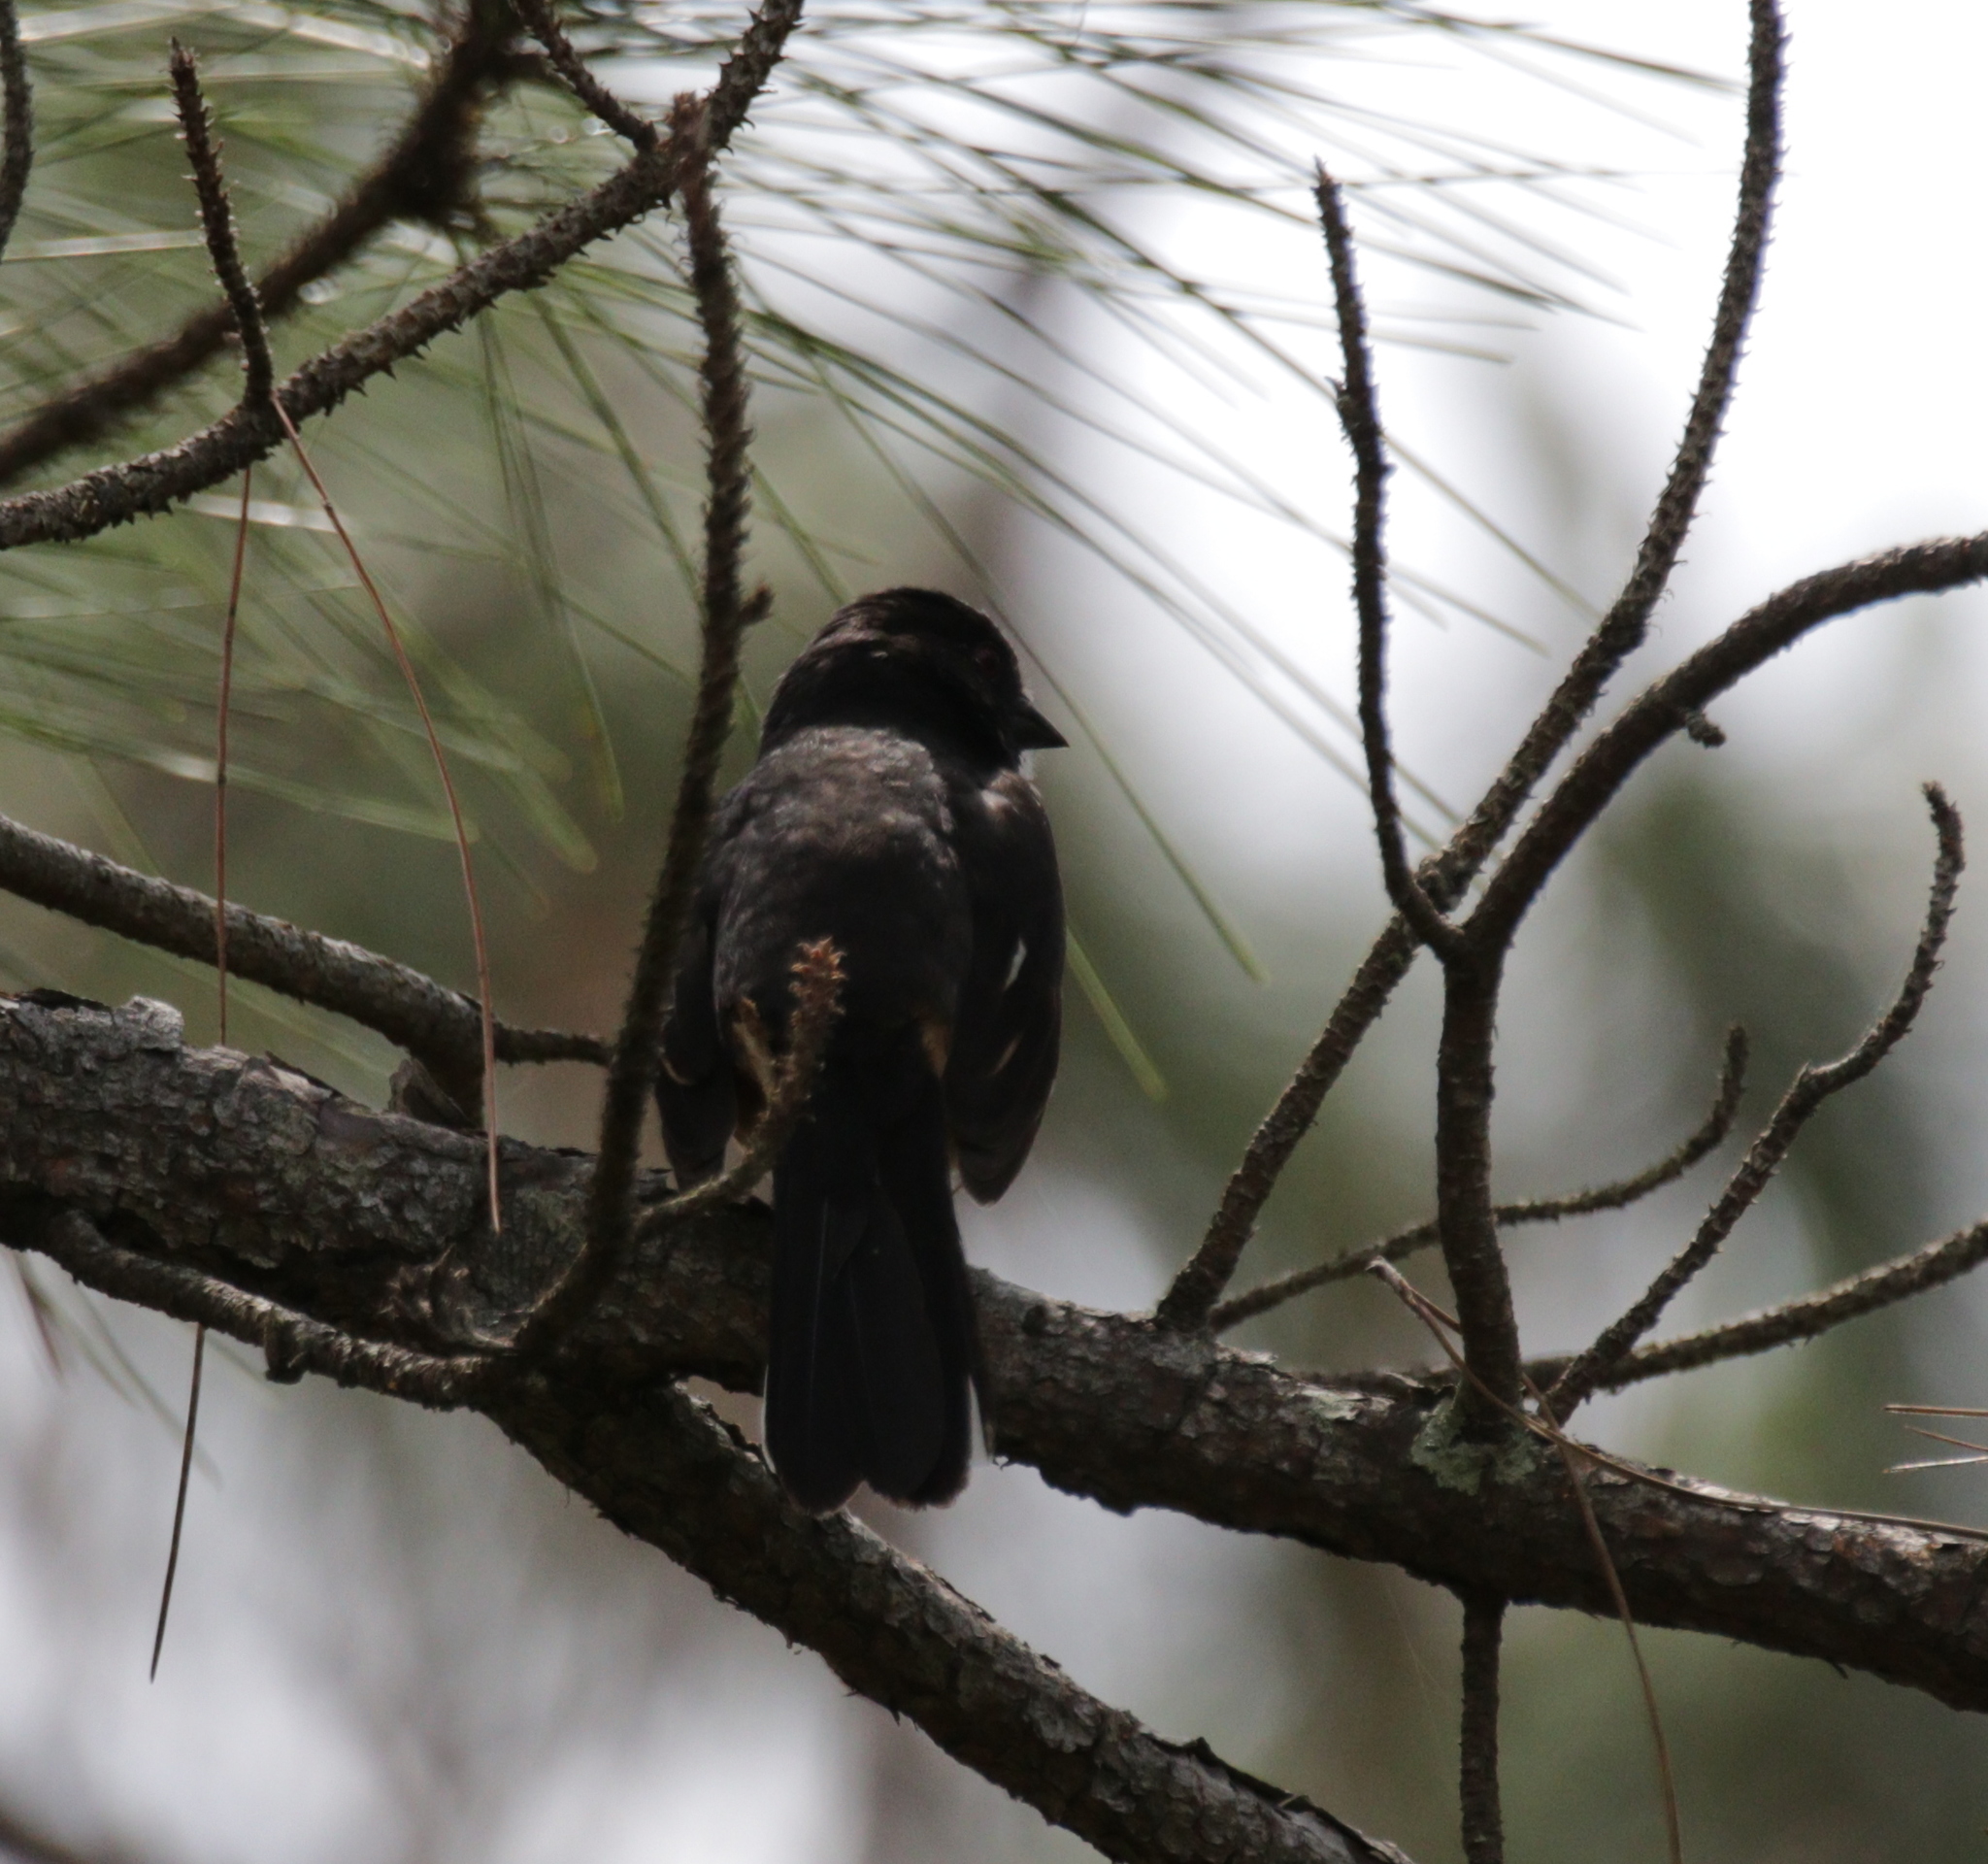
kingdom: Animalia
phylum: Chordata
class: Aves
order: Passeriformes
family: Passerellidae
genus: Pipilo
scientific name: Pipilo erythrophthalmus
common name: Eastern towhee
